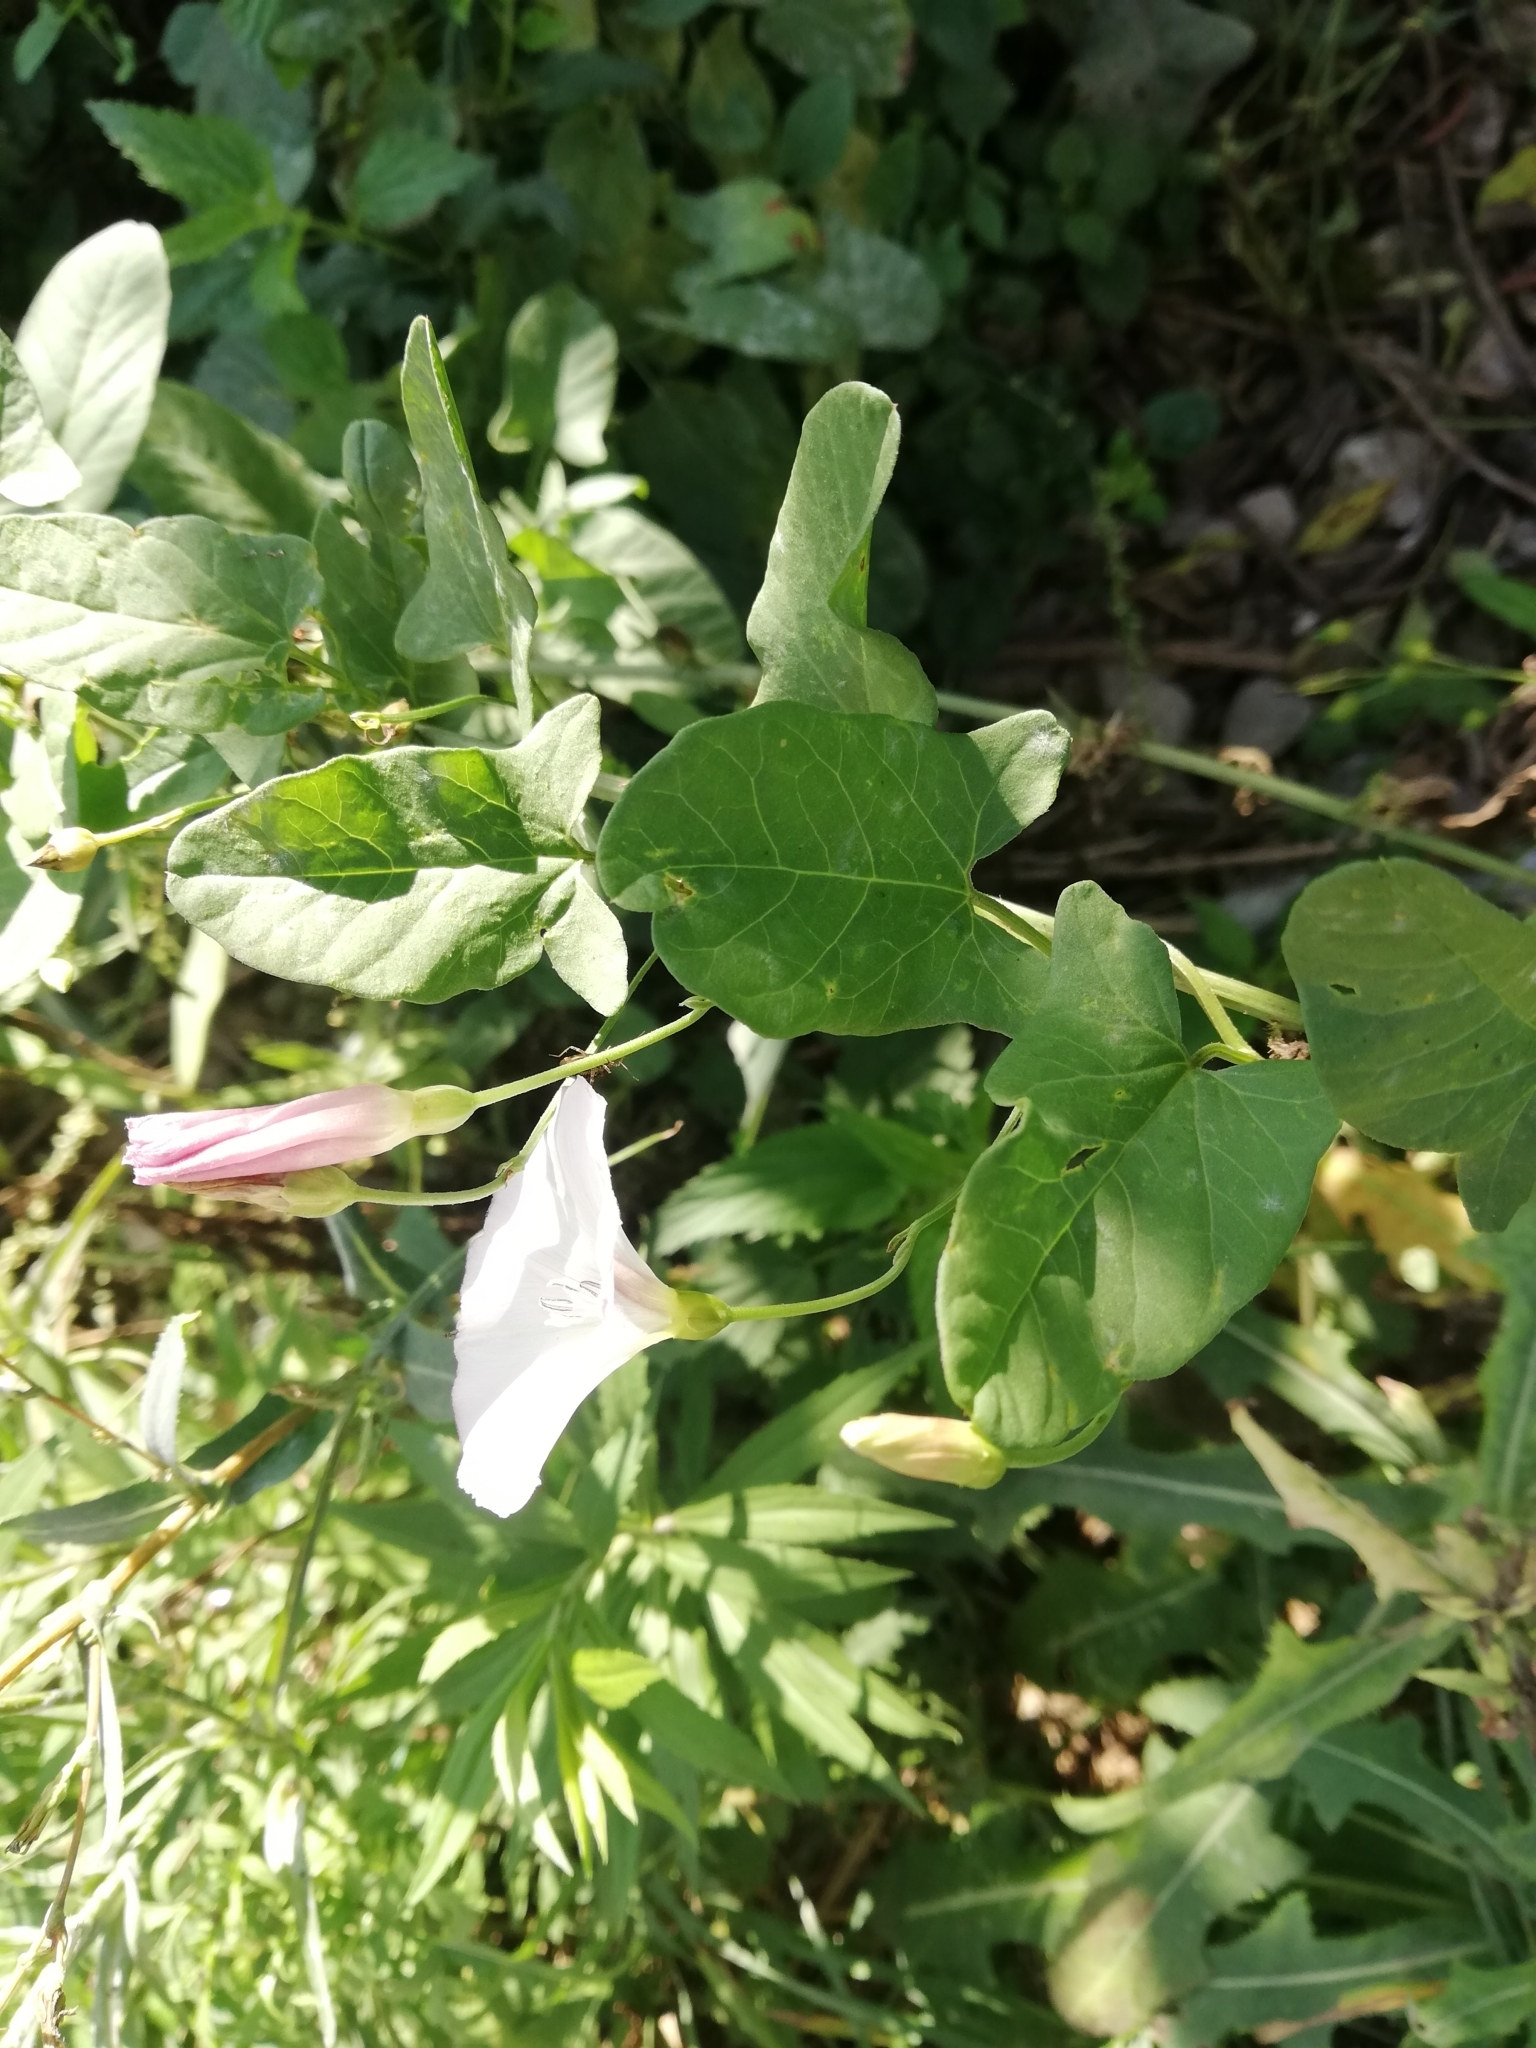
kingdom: Plantae
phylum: Tracheophyta
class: Magnoliopsida
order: Solanales
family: Convolvulaceae
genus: Convolvulus
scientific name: Convolvulus arvensis
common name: Field bindweed
